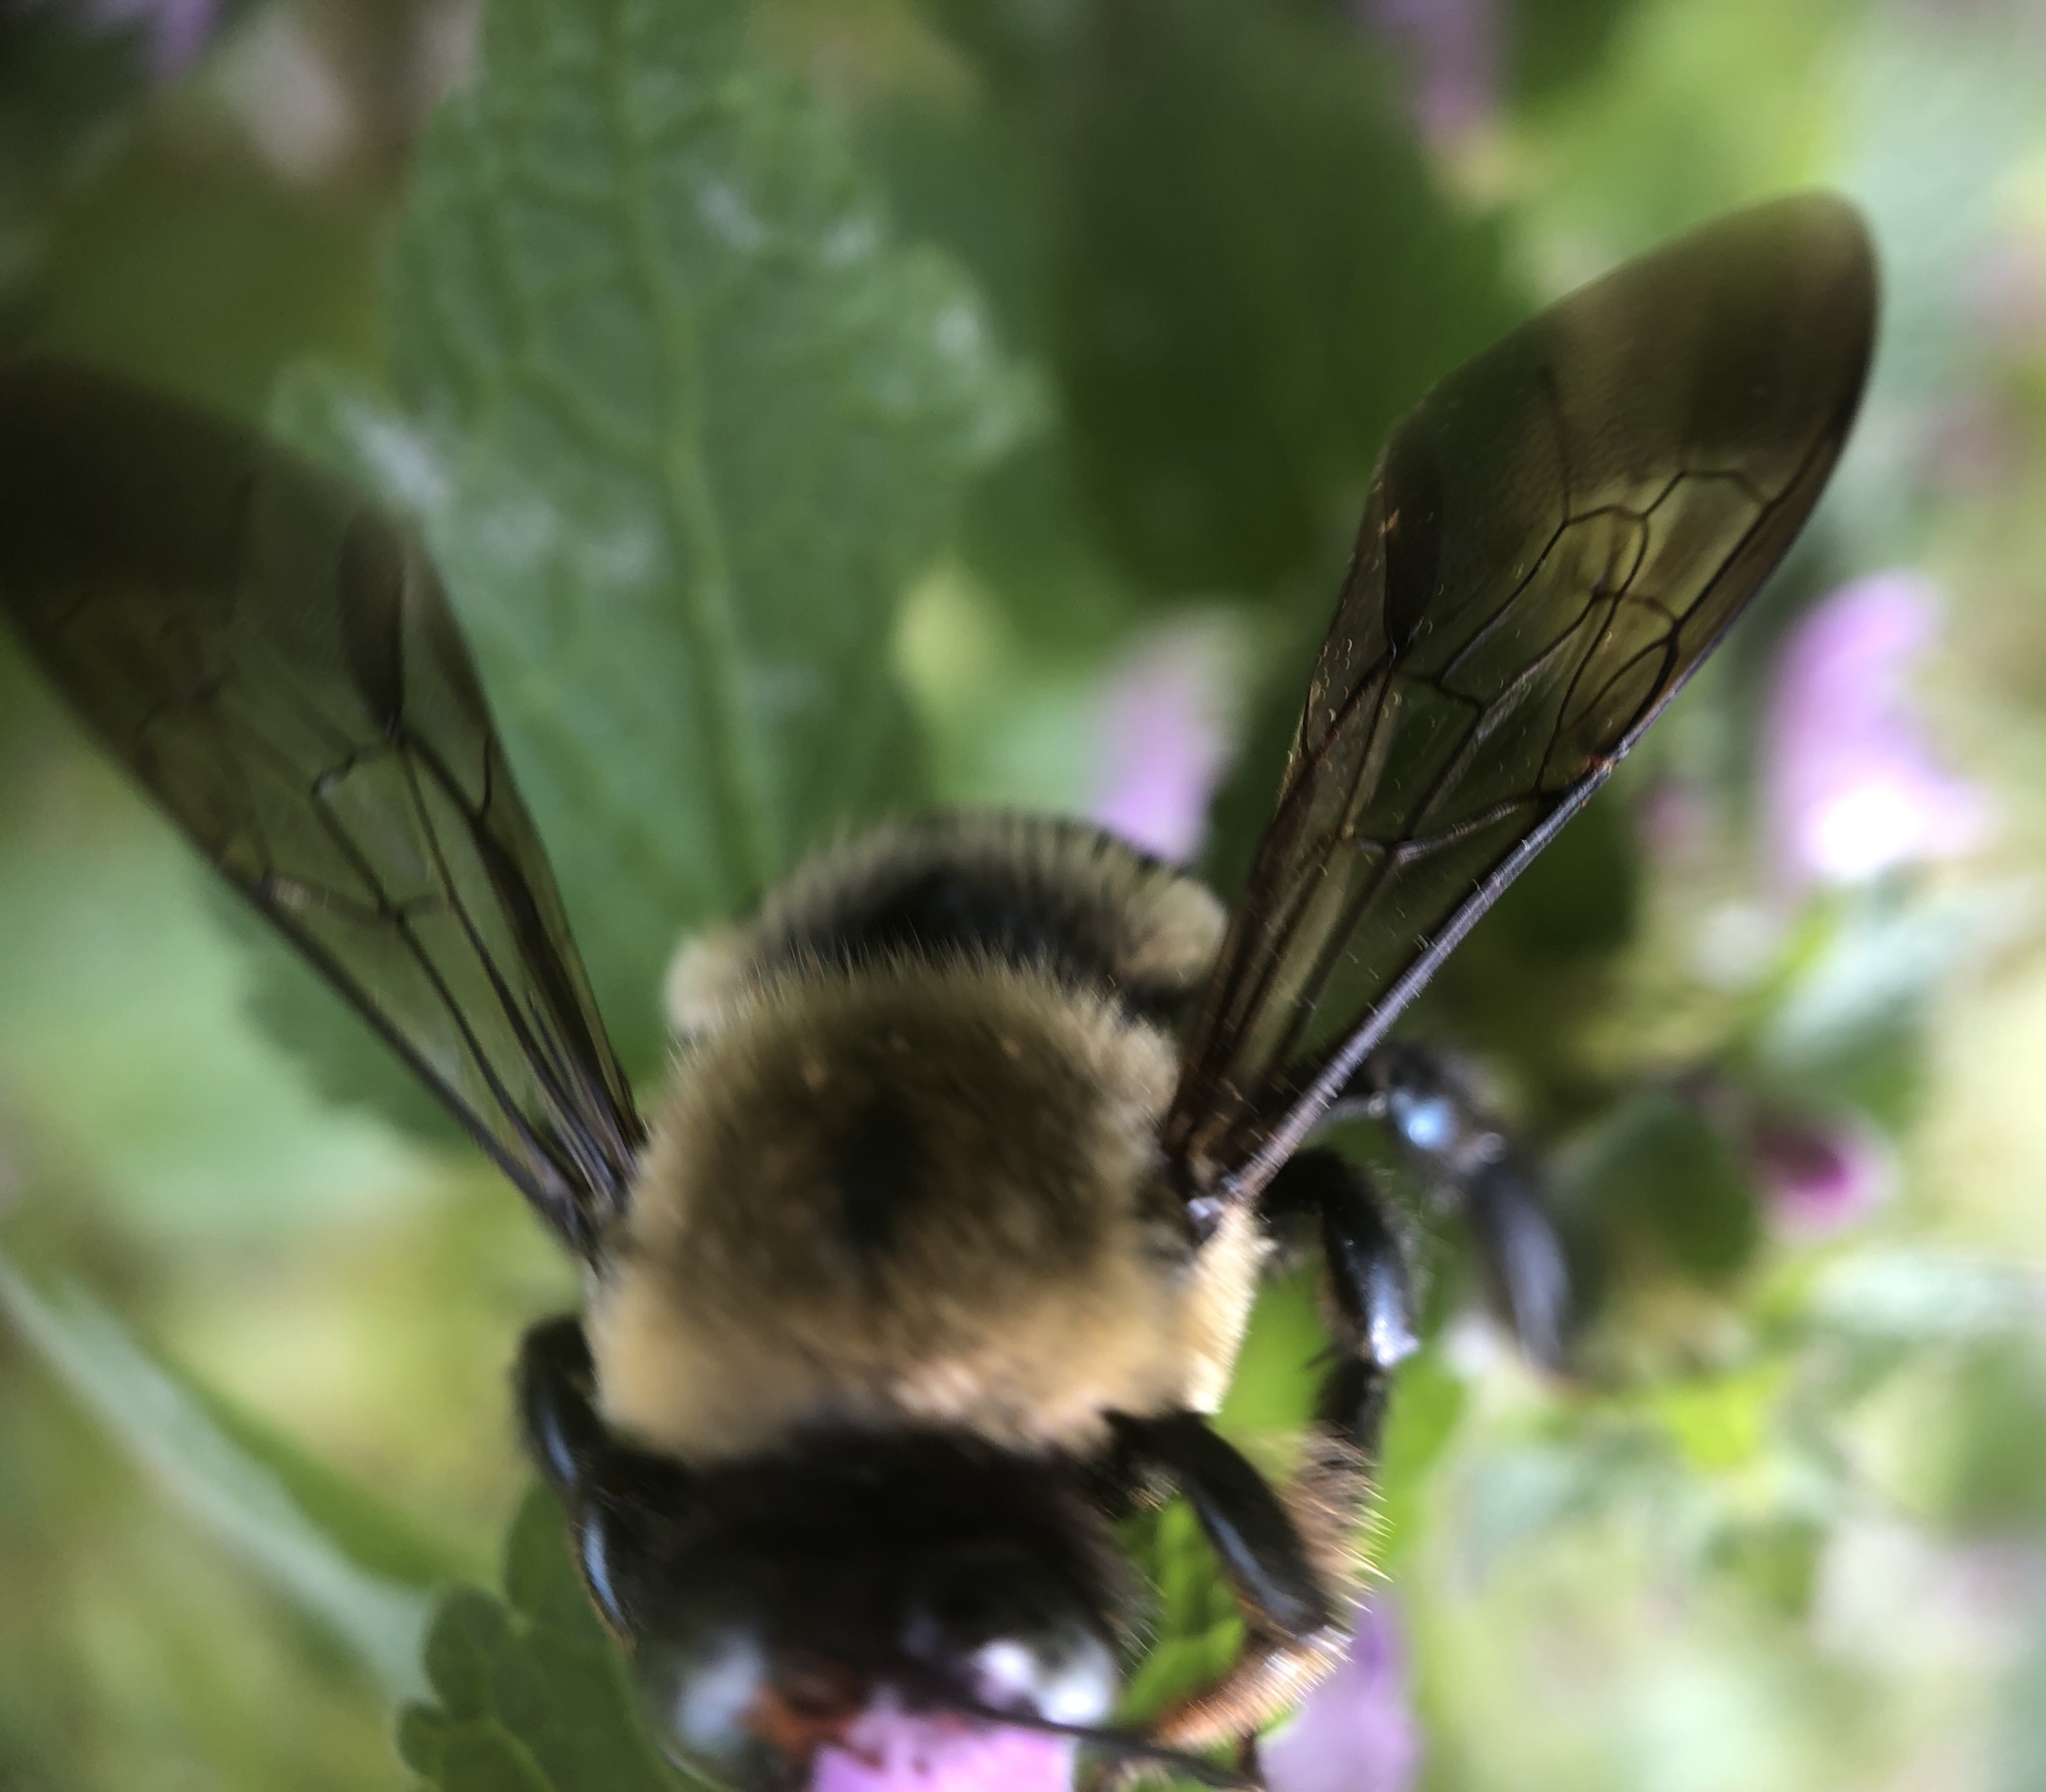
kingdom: Animalia
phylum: Arthropoda
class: Insecta
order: Hymenoptera
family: Apidae
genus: Xylocopa
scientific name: Xylocopa virginica
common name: Carpenter bee
